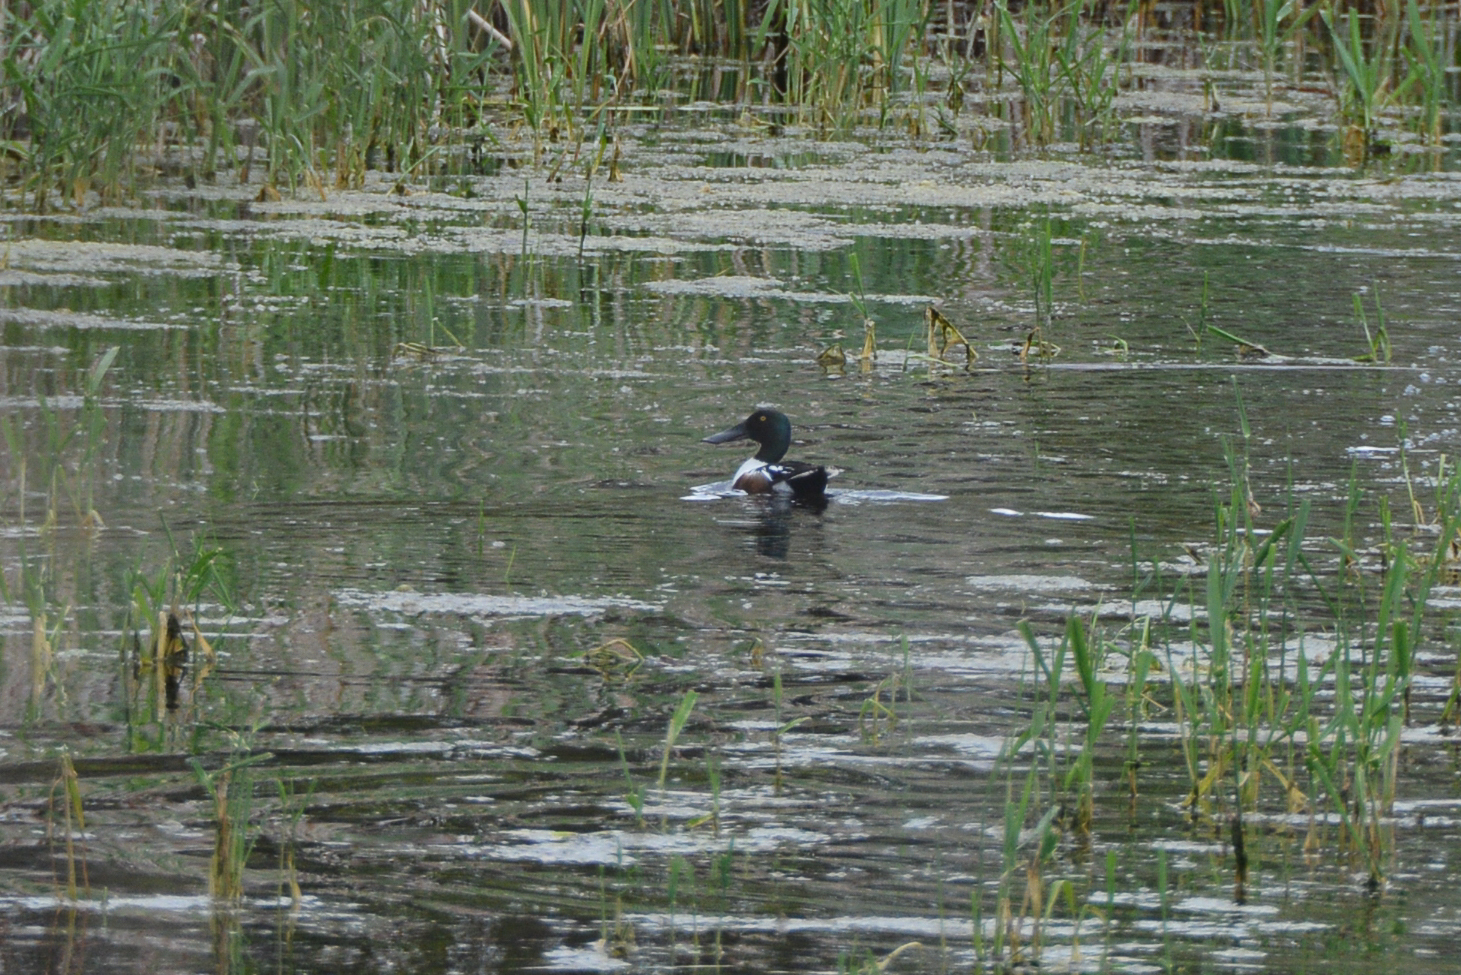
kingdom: Animalia
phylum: Chordata
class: Aves
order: Anseriformes
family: Anatidae
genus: Spatula
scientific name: Spatula clypeata
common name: Northern shoveler
